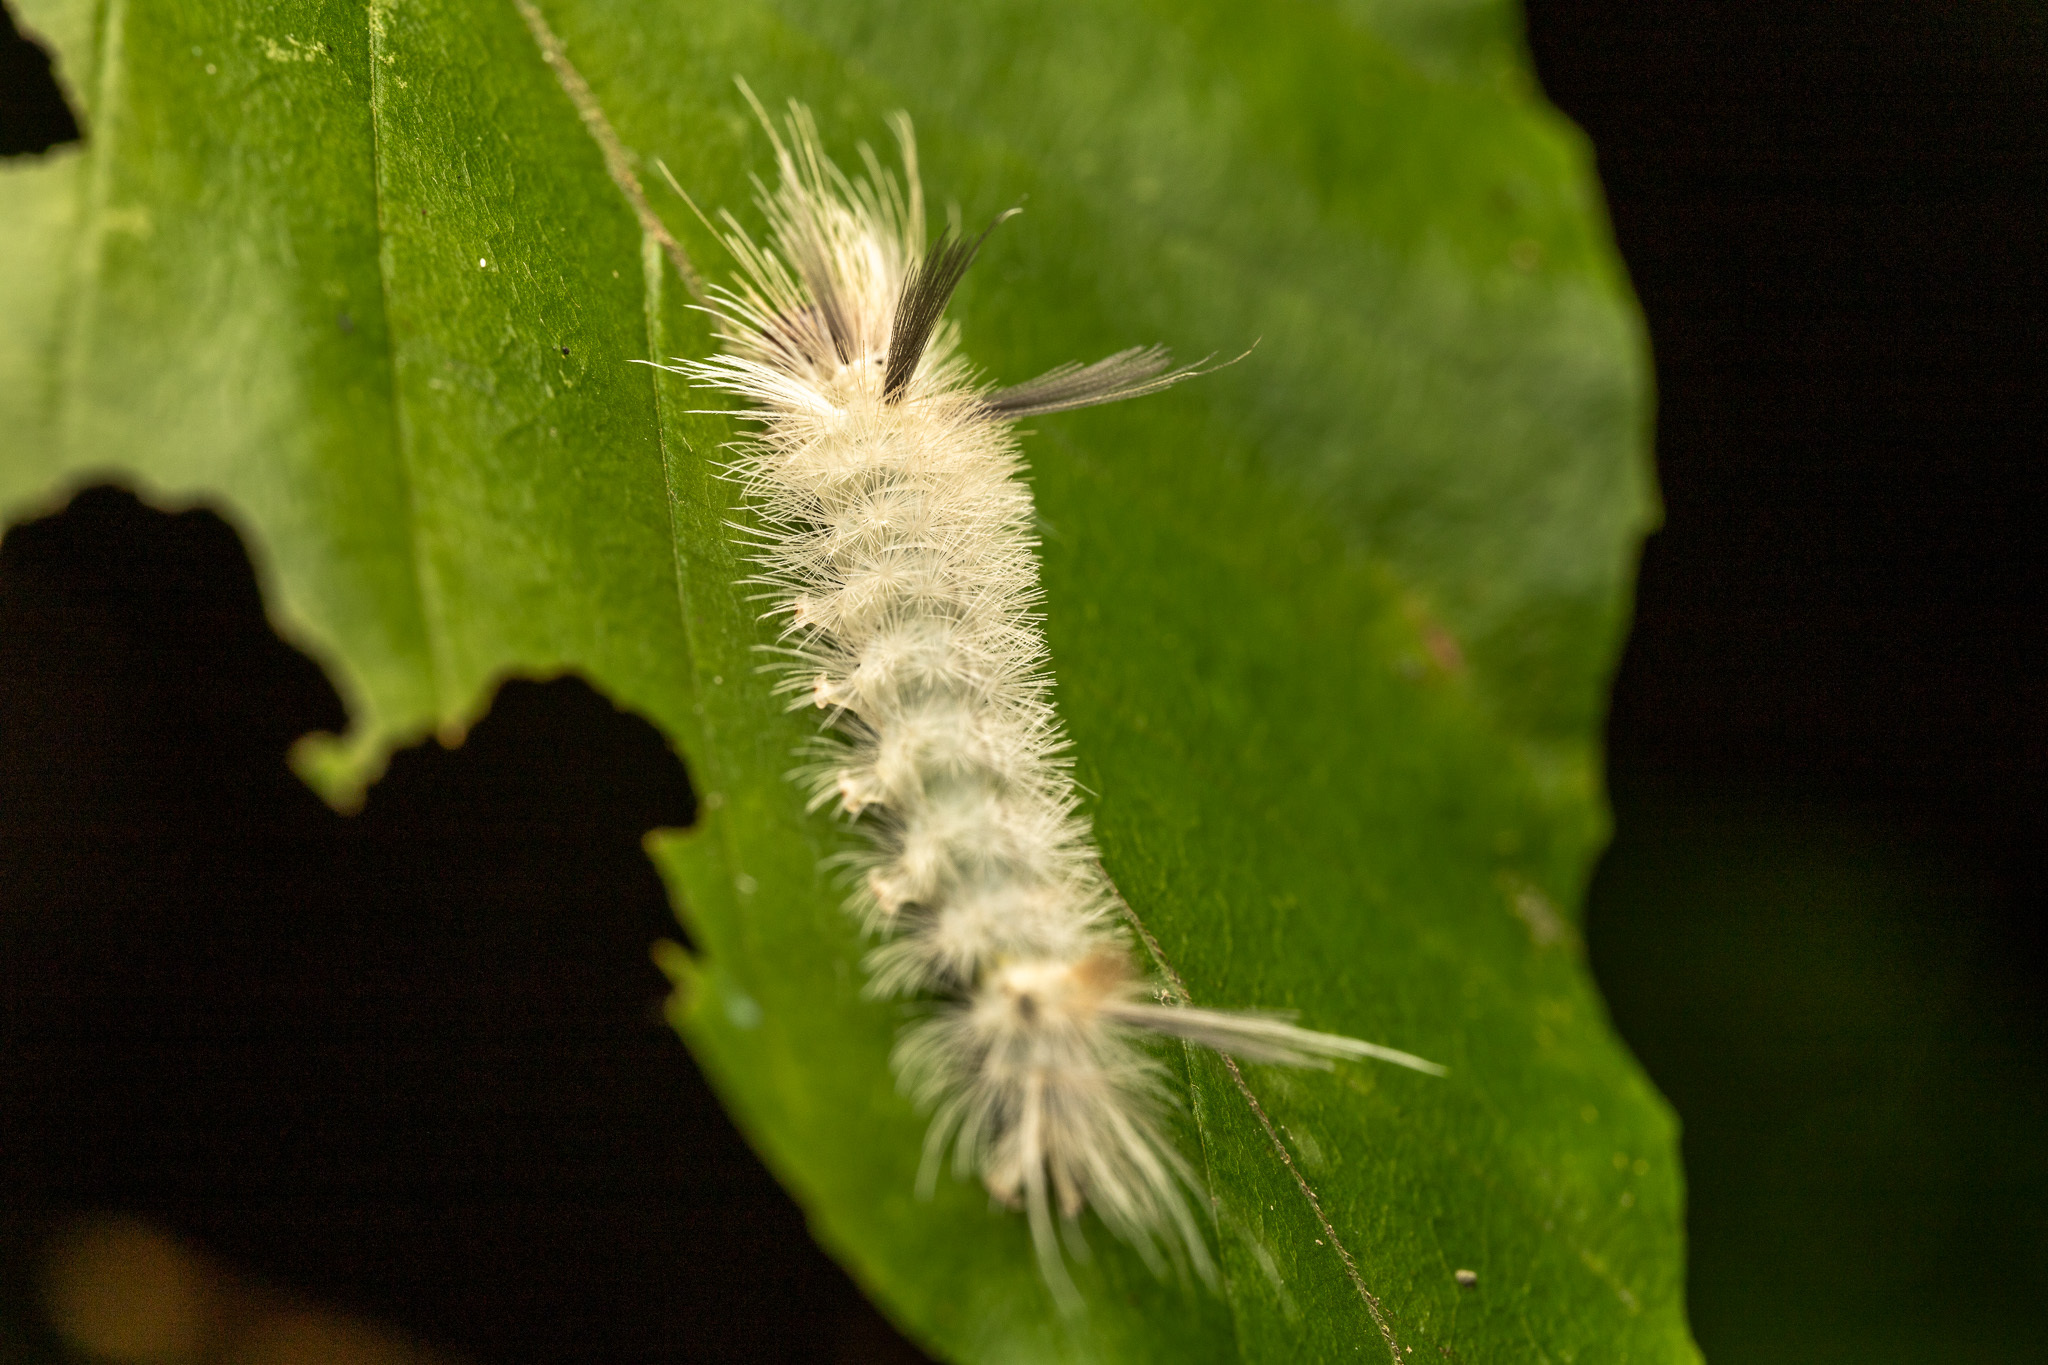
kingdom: Animalia
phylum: Arthropoda
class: Insecta
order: Lepidoptera
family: Erebidae
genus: Halysidota
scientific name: Halysidota tessellaris
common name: Banded tussock moth
